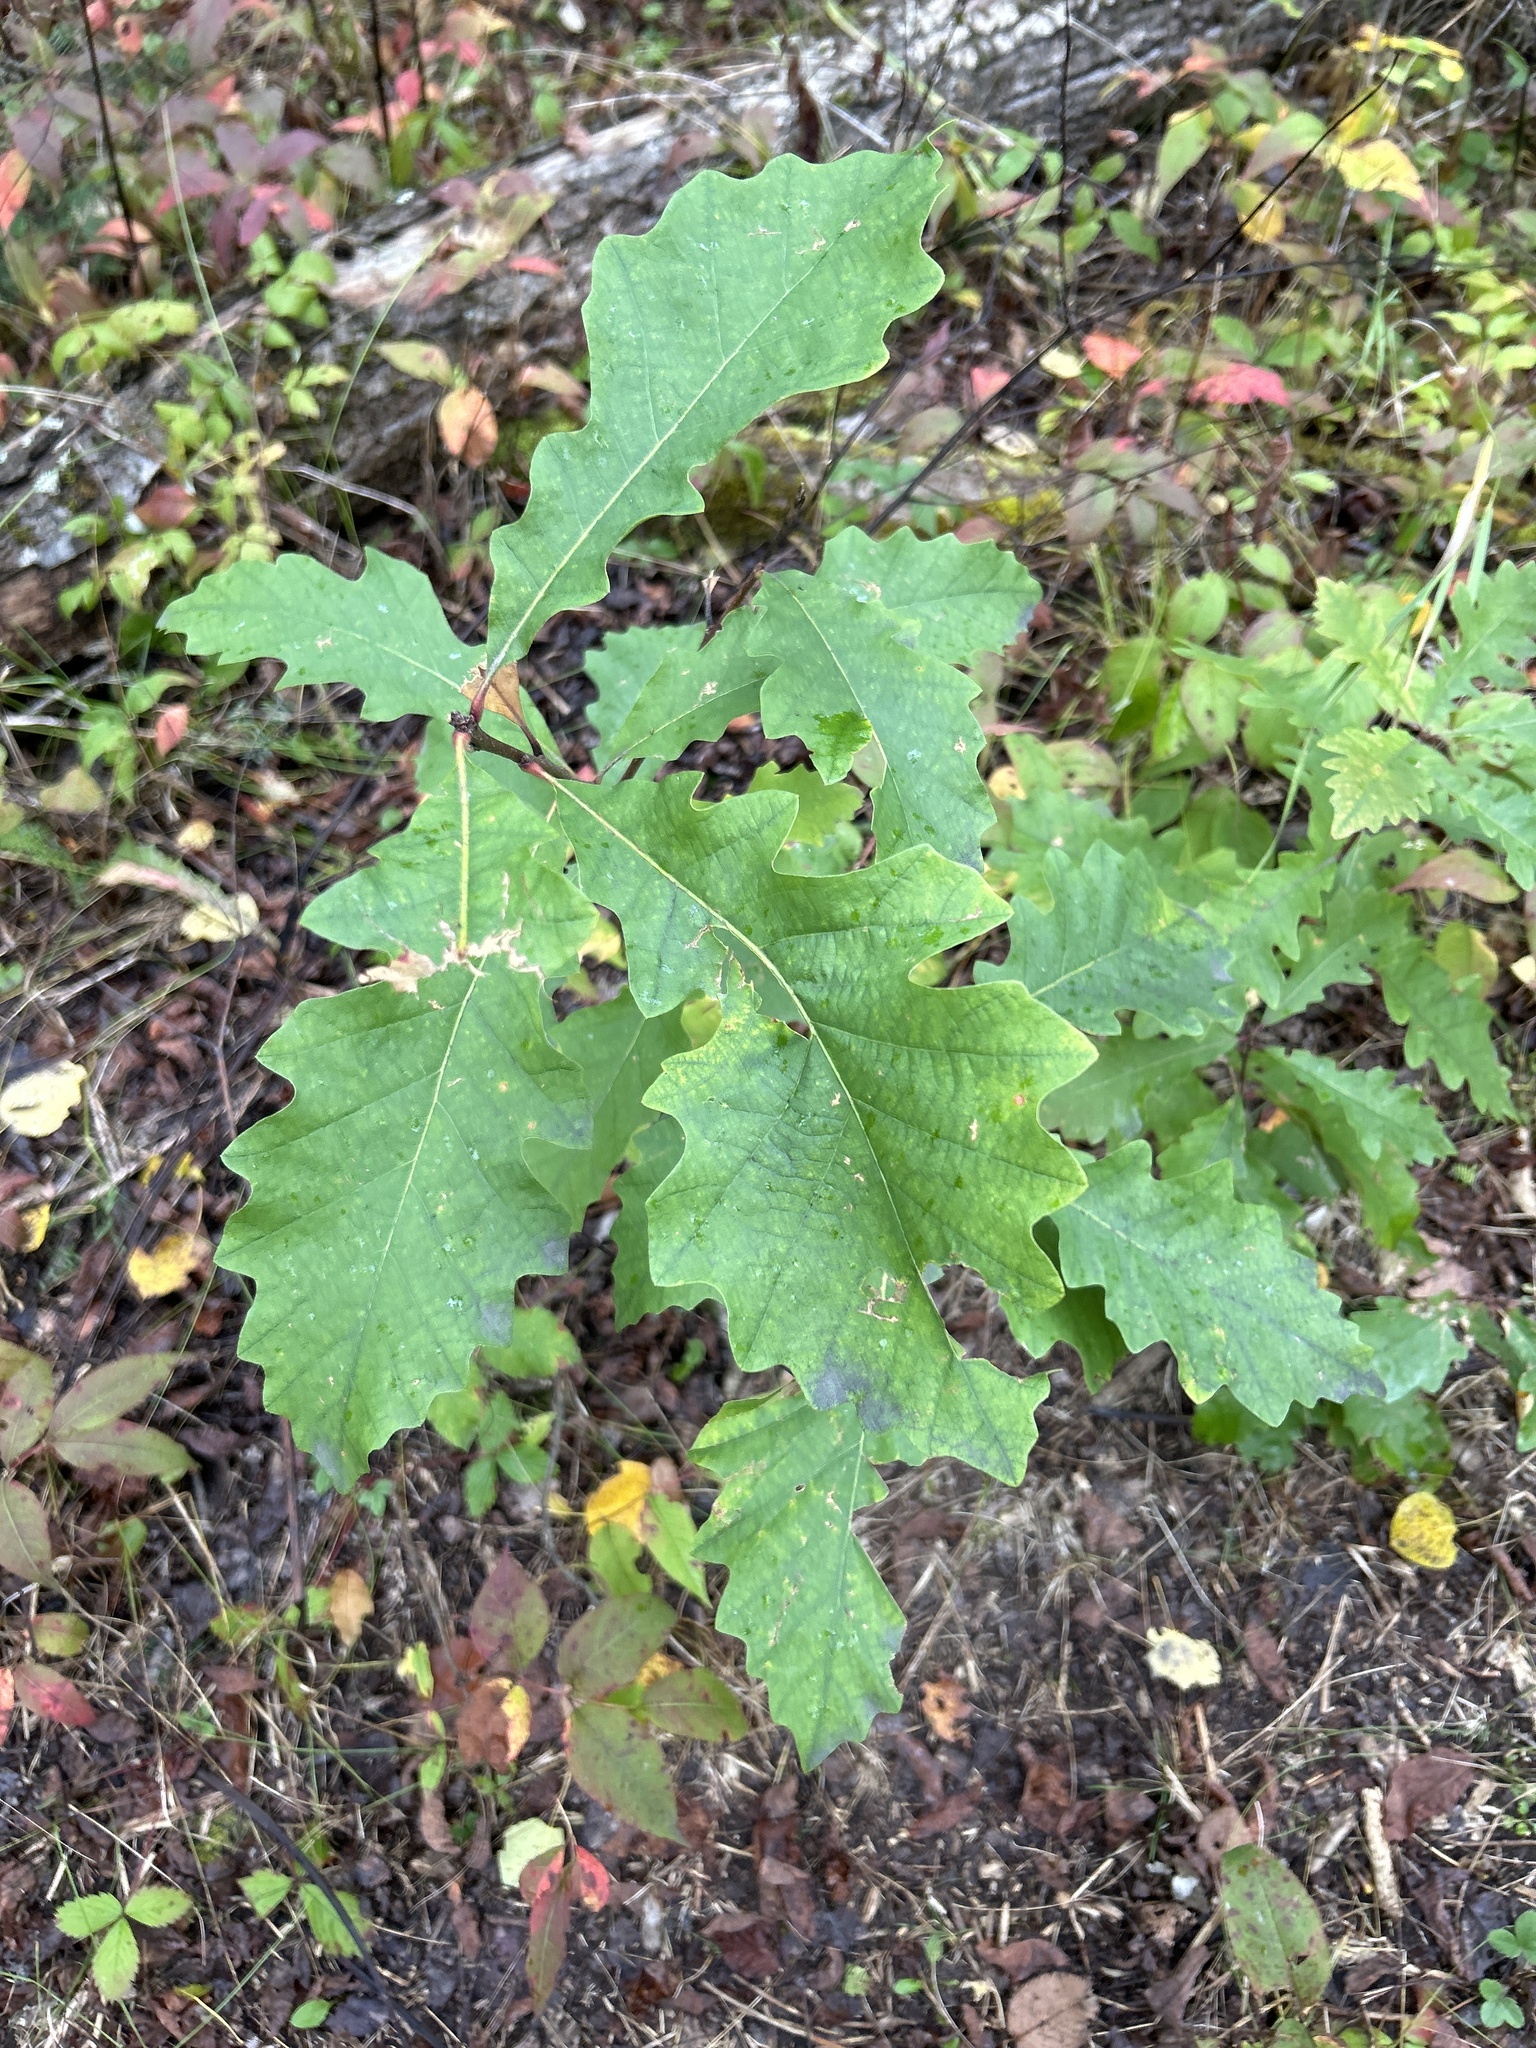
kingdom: Plantae
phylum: Tracheophyta
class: Magnoliopsida
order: Fagales
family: Fagaceae
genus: Quercus
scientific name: Quercus macrocarpa
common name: Bur oak
